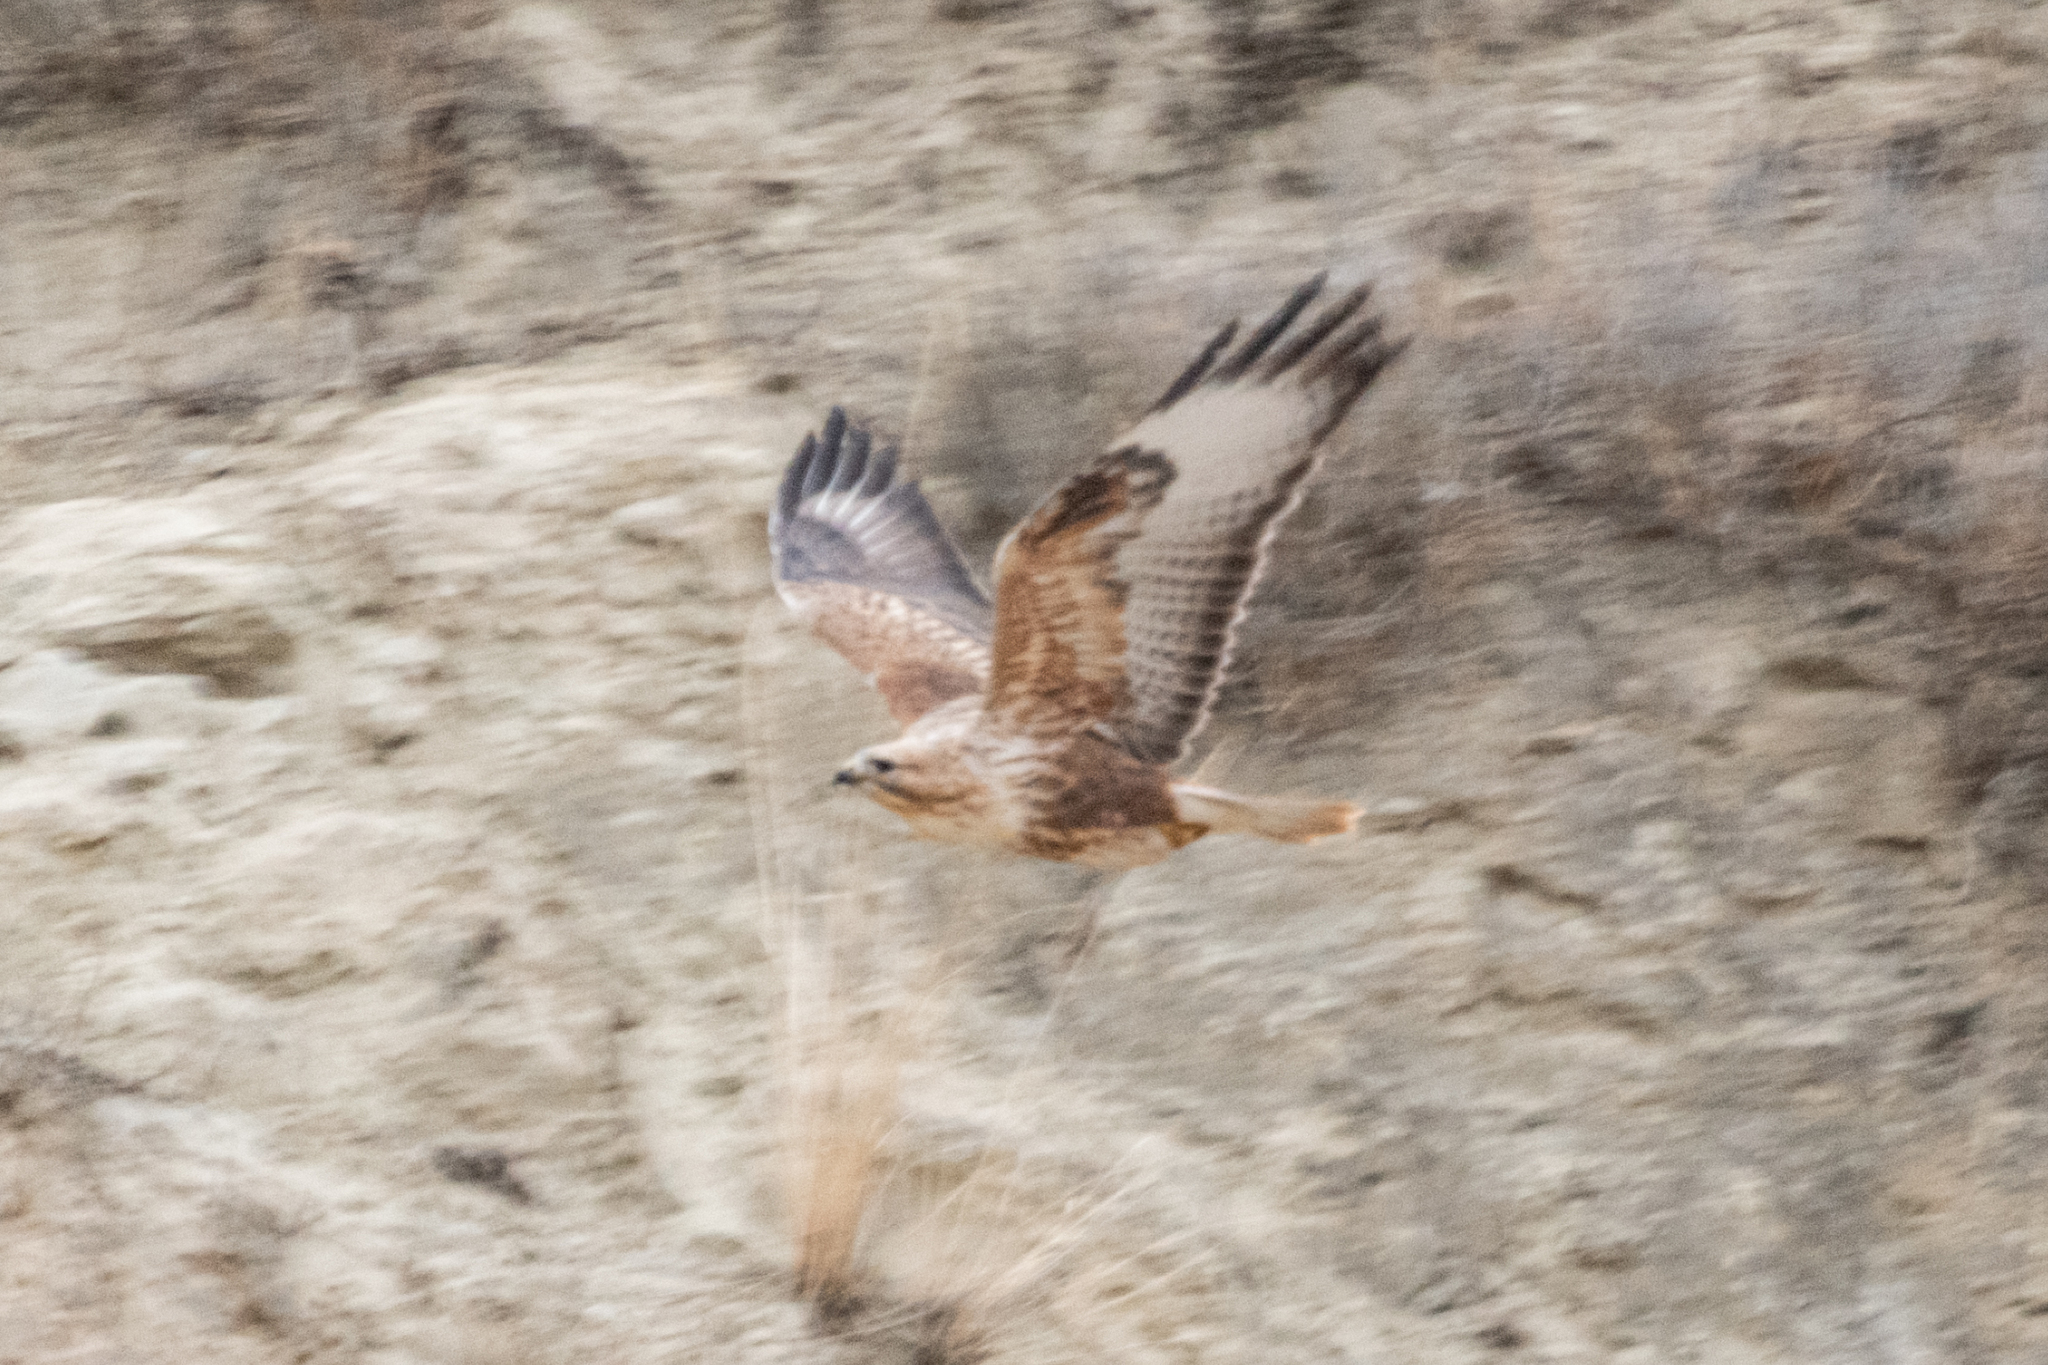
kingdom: Animalia
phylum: Chordata
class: Aves
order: Accipitriformes
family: Accipitridae
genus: Buteo
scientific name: Buteo rufinus
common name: Long-legged buzzard
